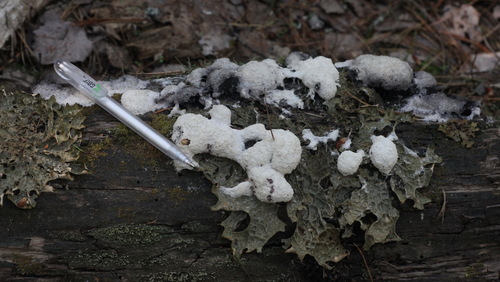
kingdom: Protozoa
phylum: Mycetozoa
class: Myxomycetes
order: Physarales
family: Physaraceae
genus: Fuligo
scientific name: Fuligo septica
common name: Dog vomit slime mold
